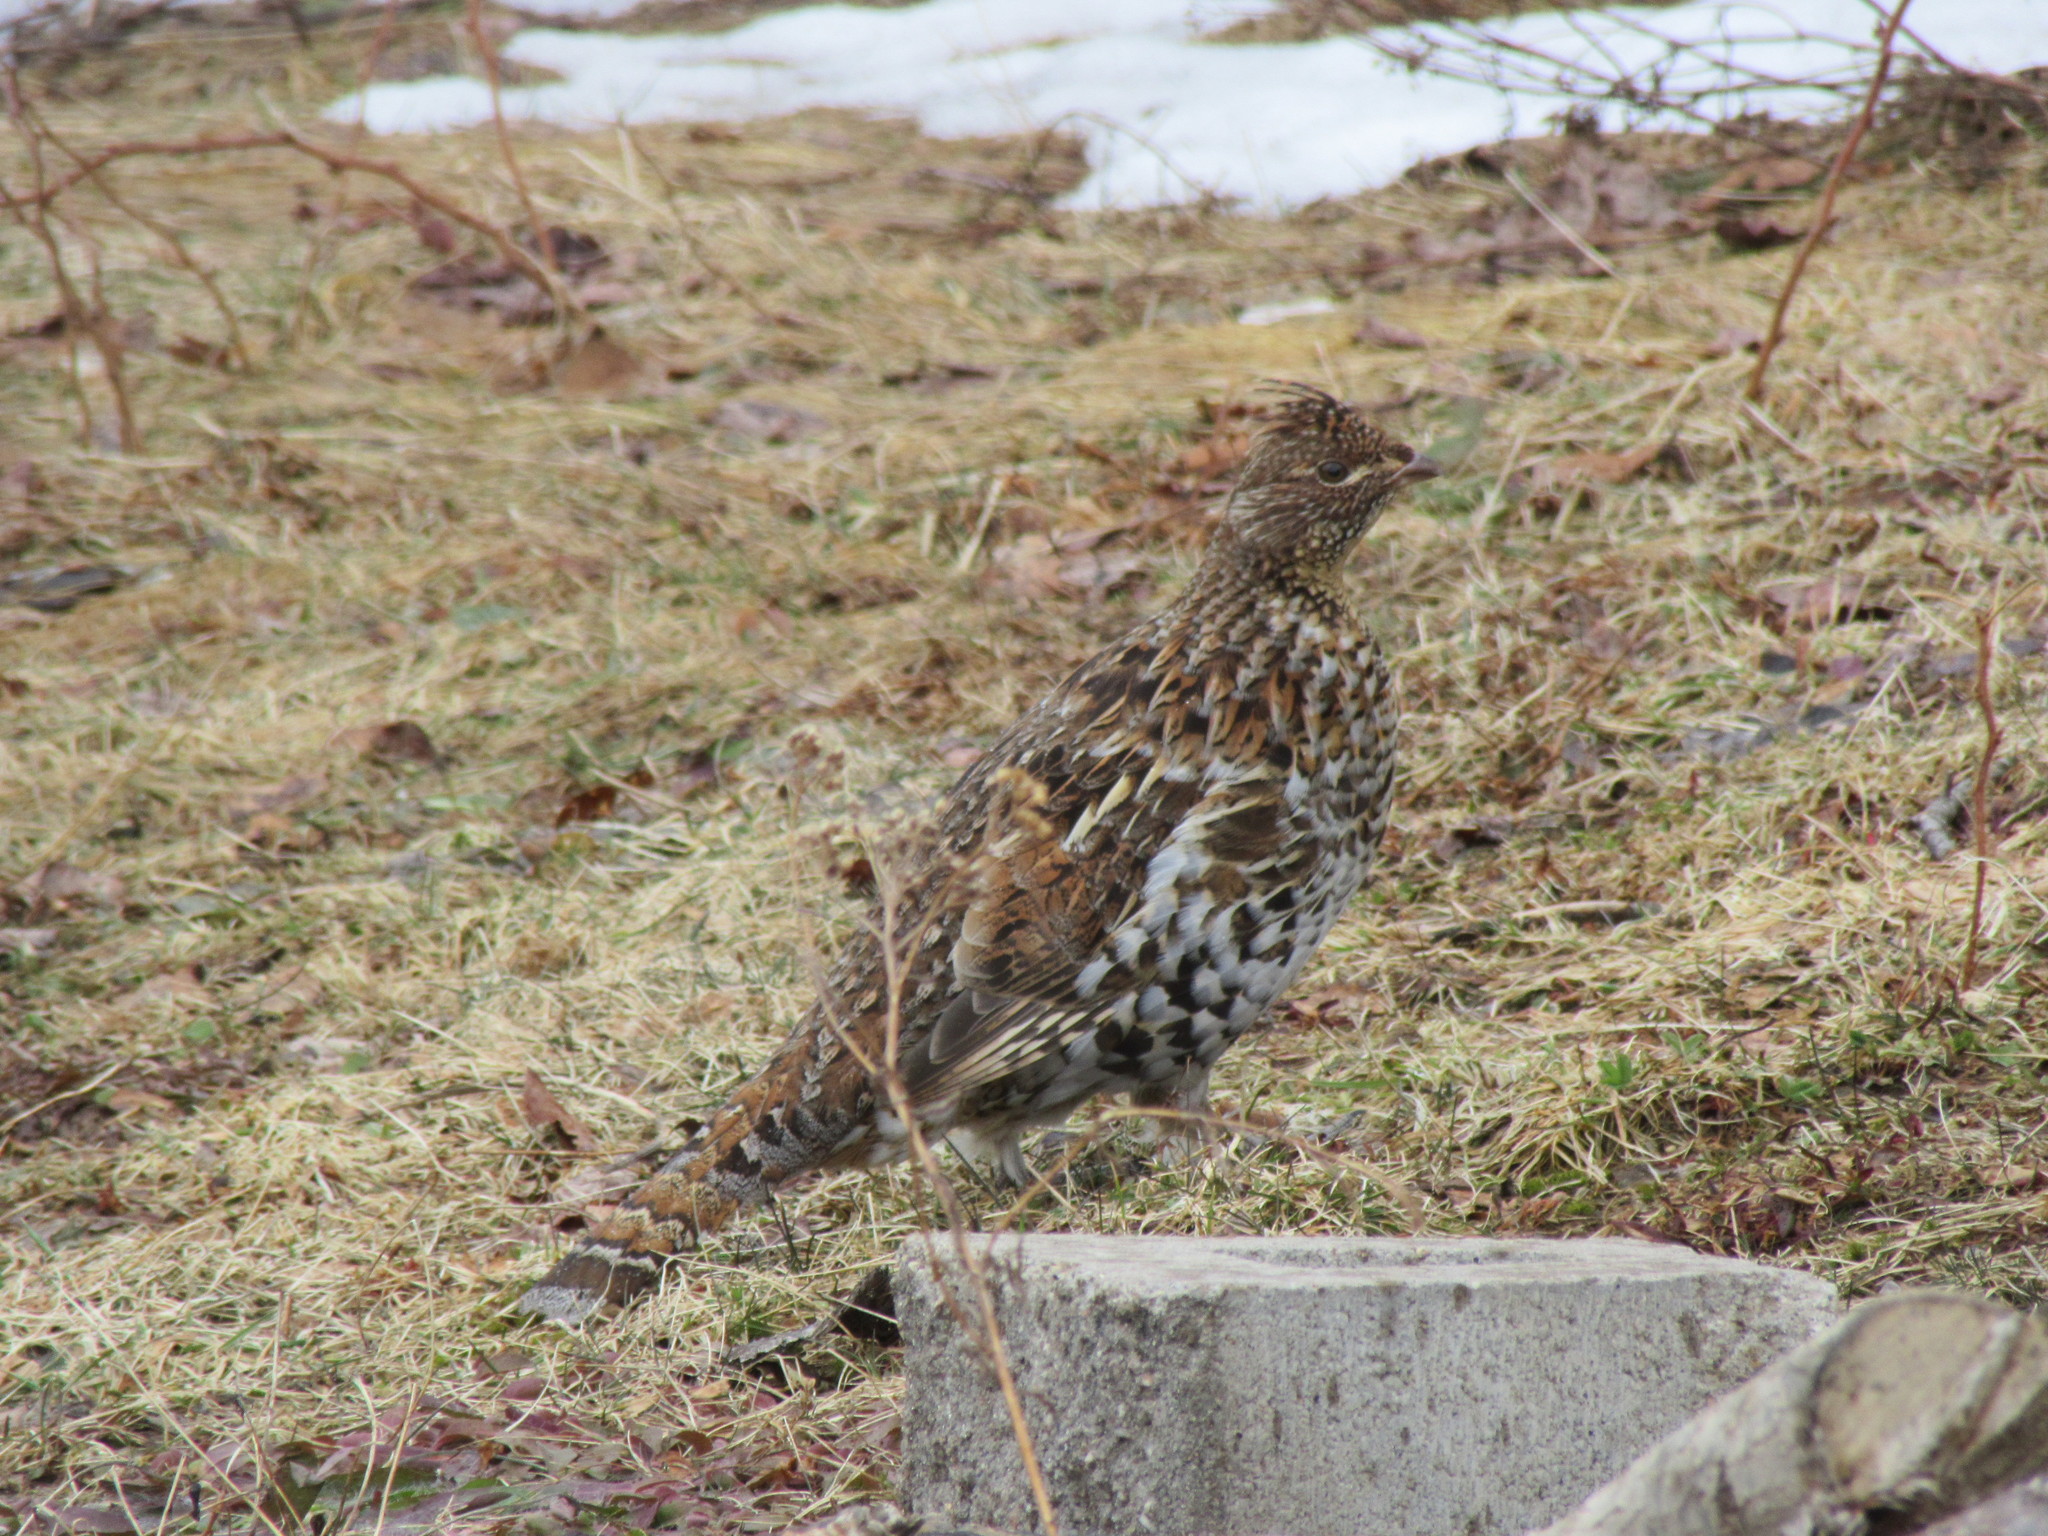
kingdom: Animalia
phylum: Chordata
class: Aves
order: Galliformes
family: Phasianidae
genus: Bonasa
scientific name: Bonasa umbellus
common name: Ruffed grouse
